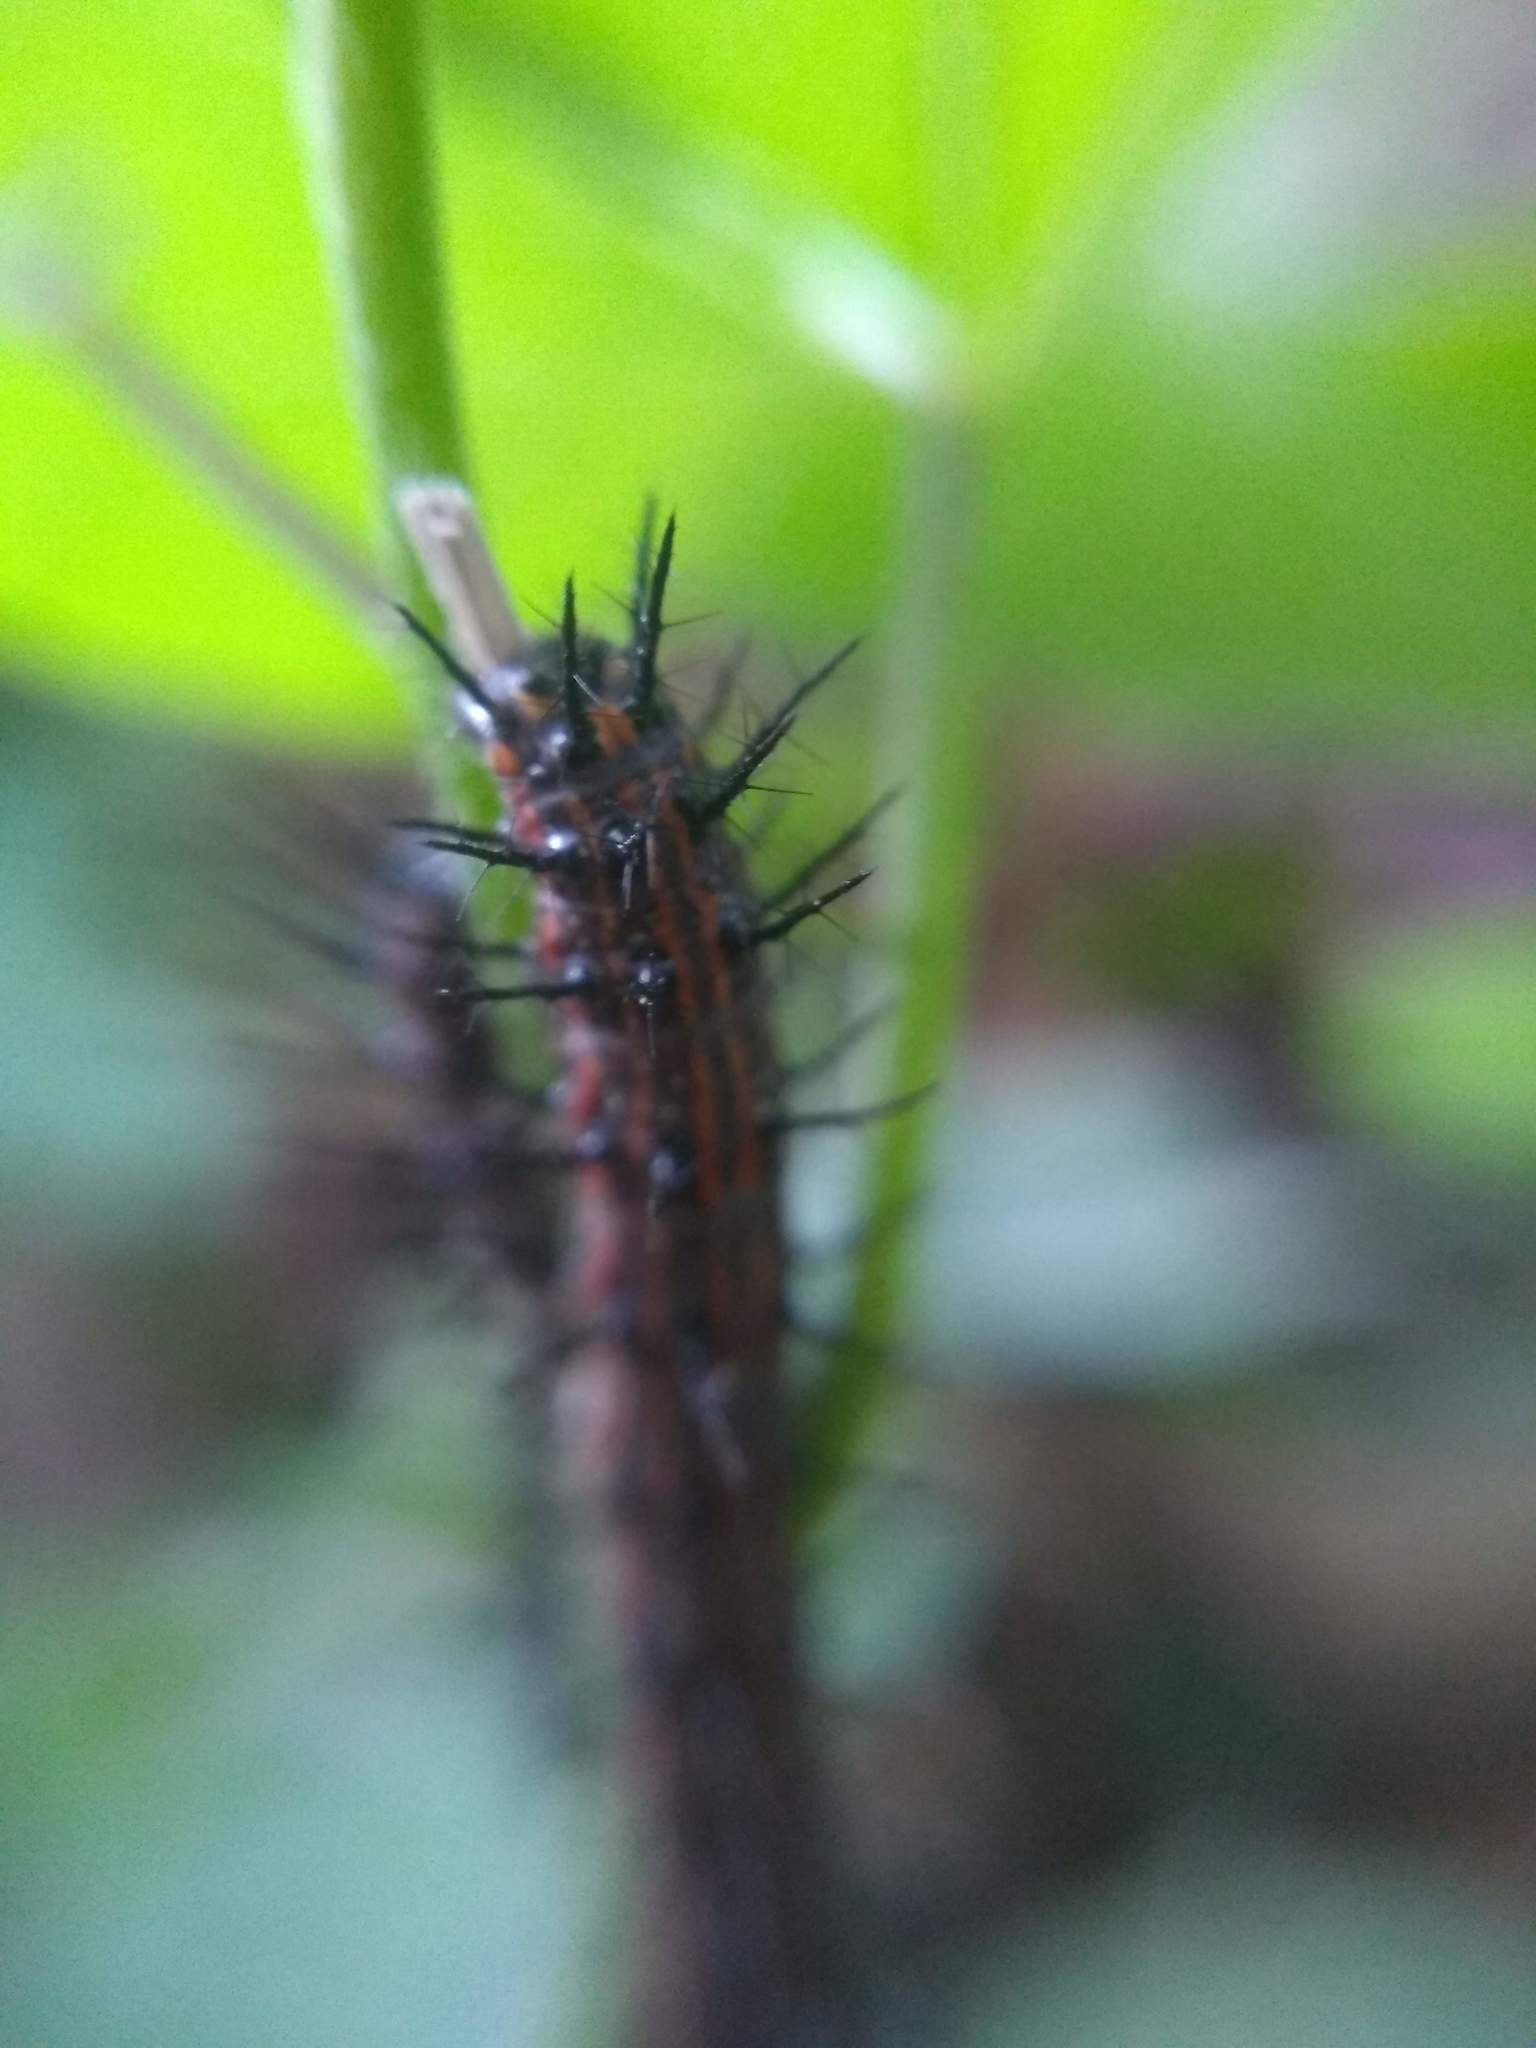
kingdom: Animalia
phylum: Arthropoda
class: Insecta
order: Lepidoptera
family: Nymphalidae
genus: Dione
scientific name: Dione vanillae
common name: Gulf fritillary
